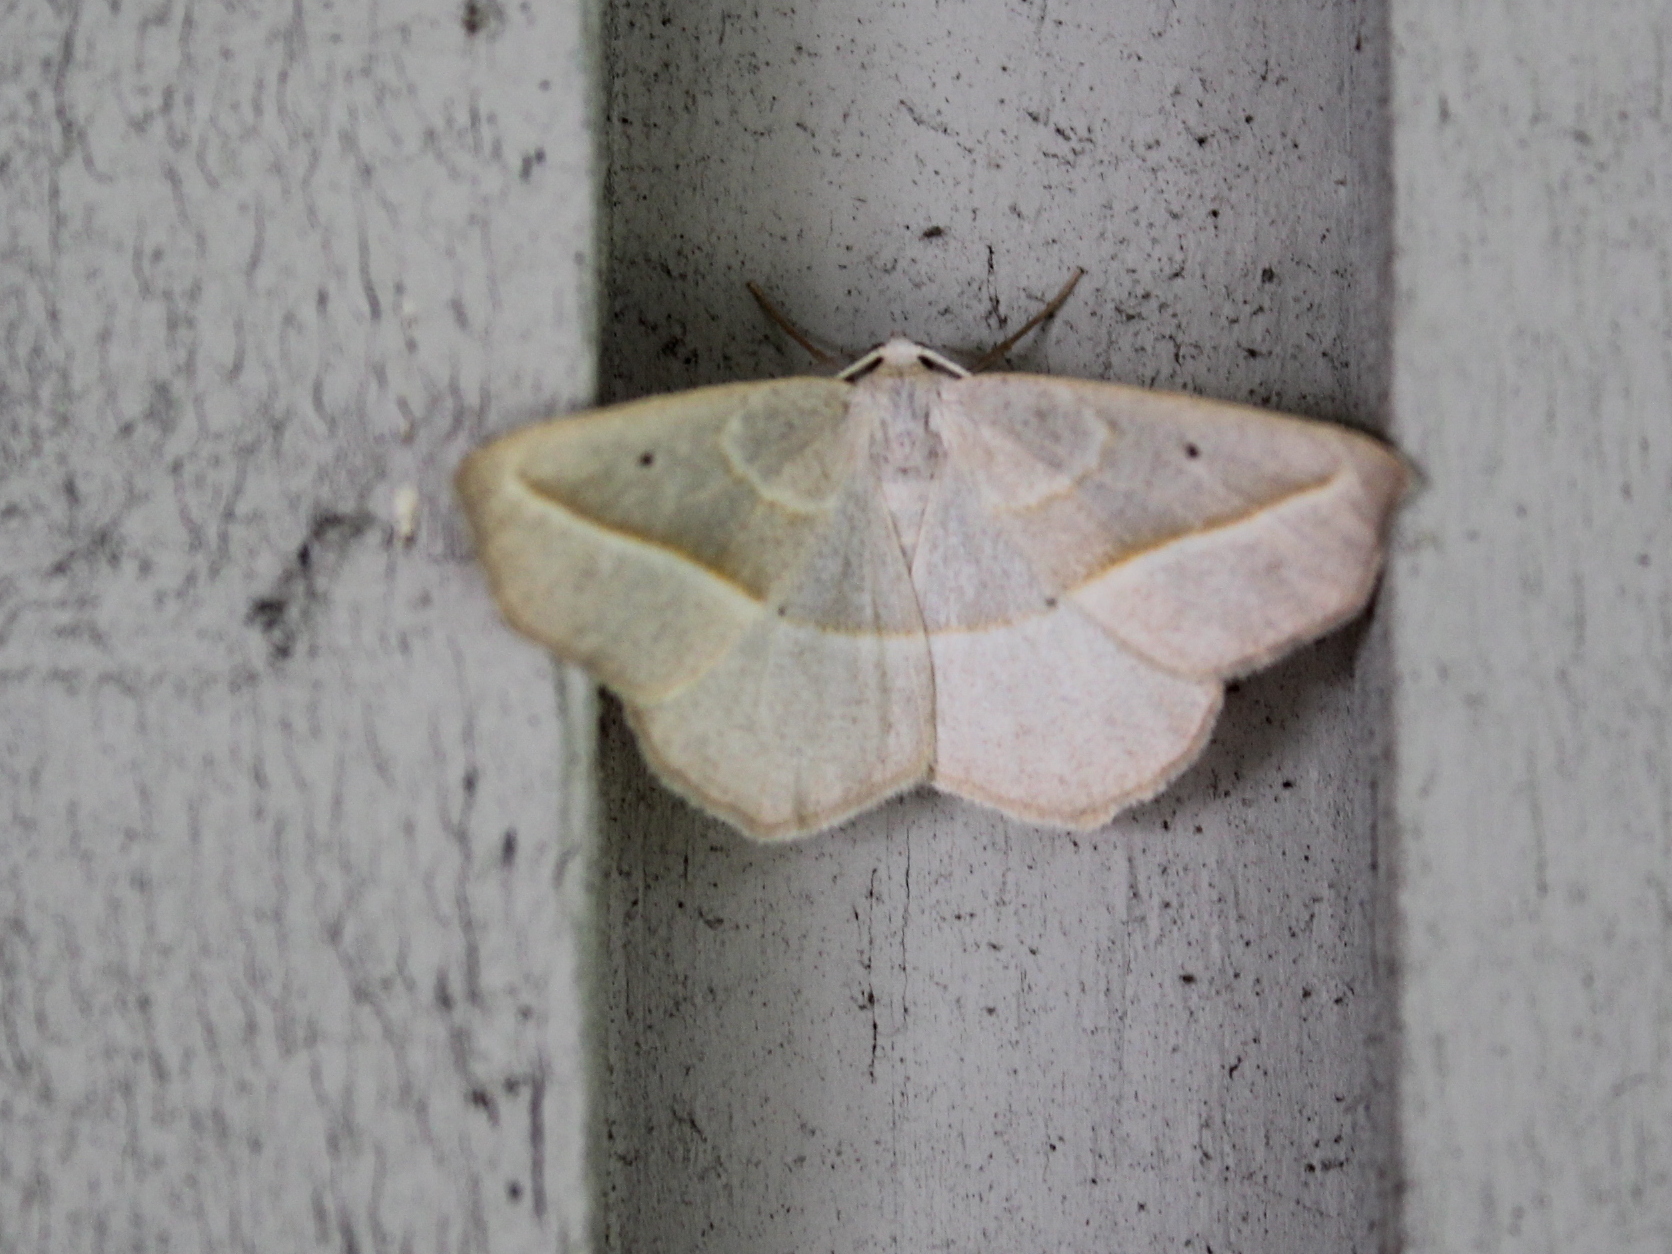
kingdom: Animalia
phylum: Arthropoda
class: Insecta
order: Lepidoptera
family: Geometridae
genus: Eusarca
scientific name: Eusarca confusaria
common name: Confused eusarca
